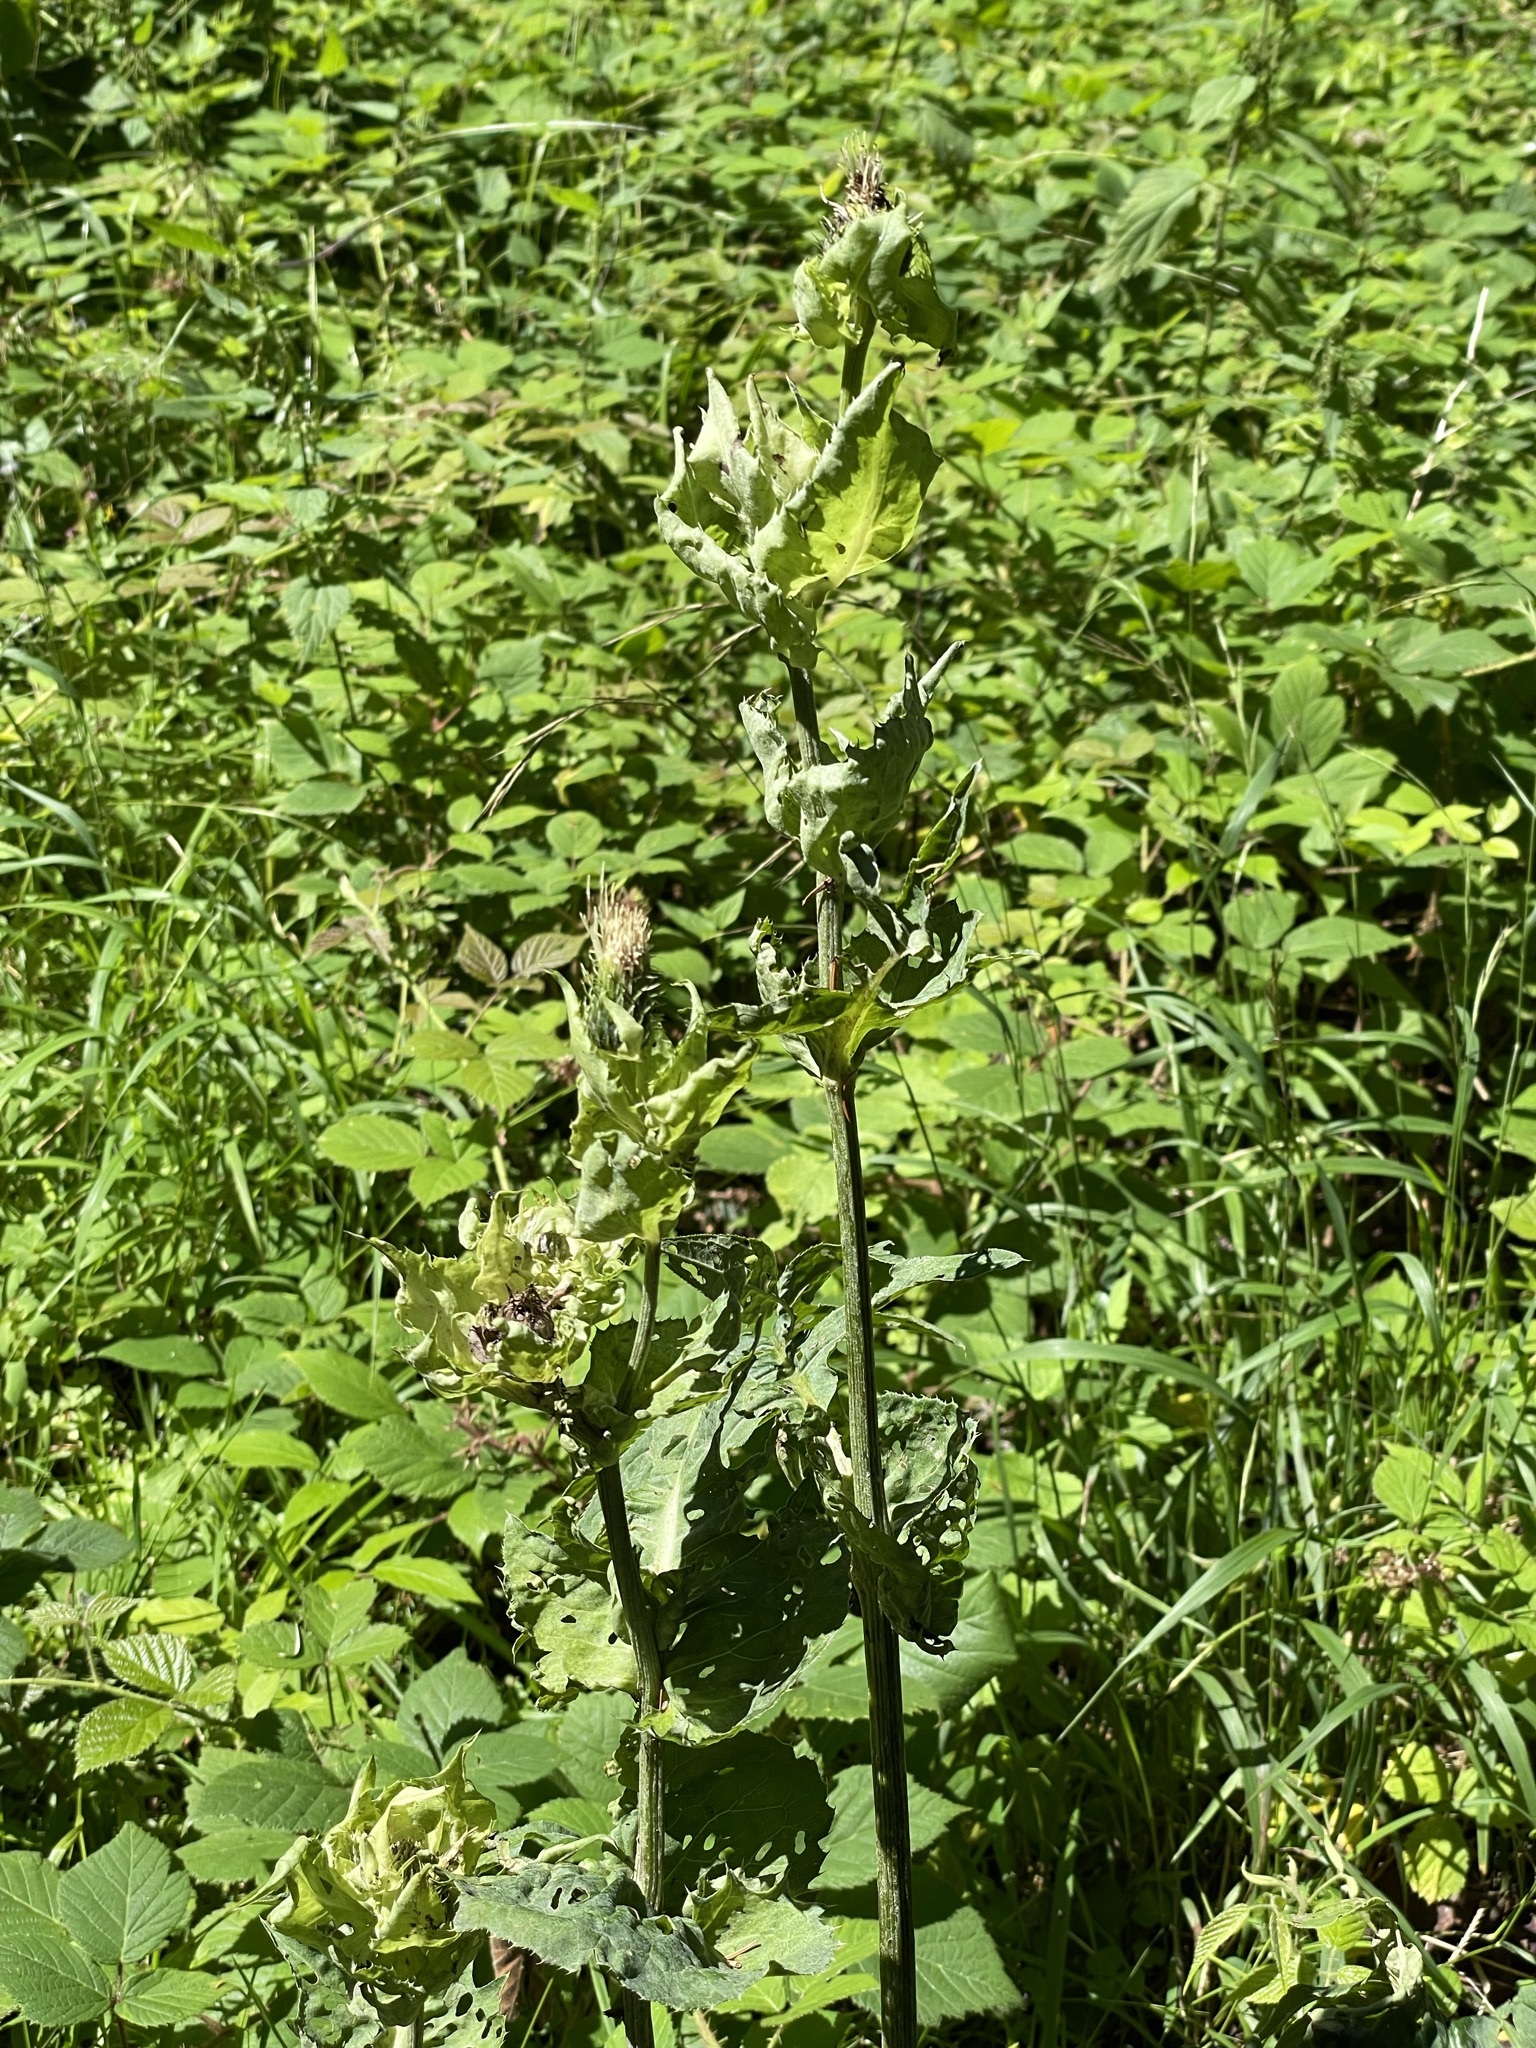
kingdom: Plantae
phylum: Tracheophyta
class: Magnoliopsida
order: Asterales
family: Asteraceae
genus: Cirsium
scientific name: Cirsium oleraceum
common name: Cabbage thistle
